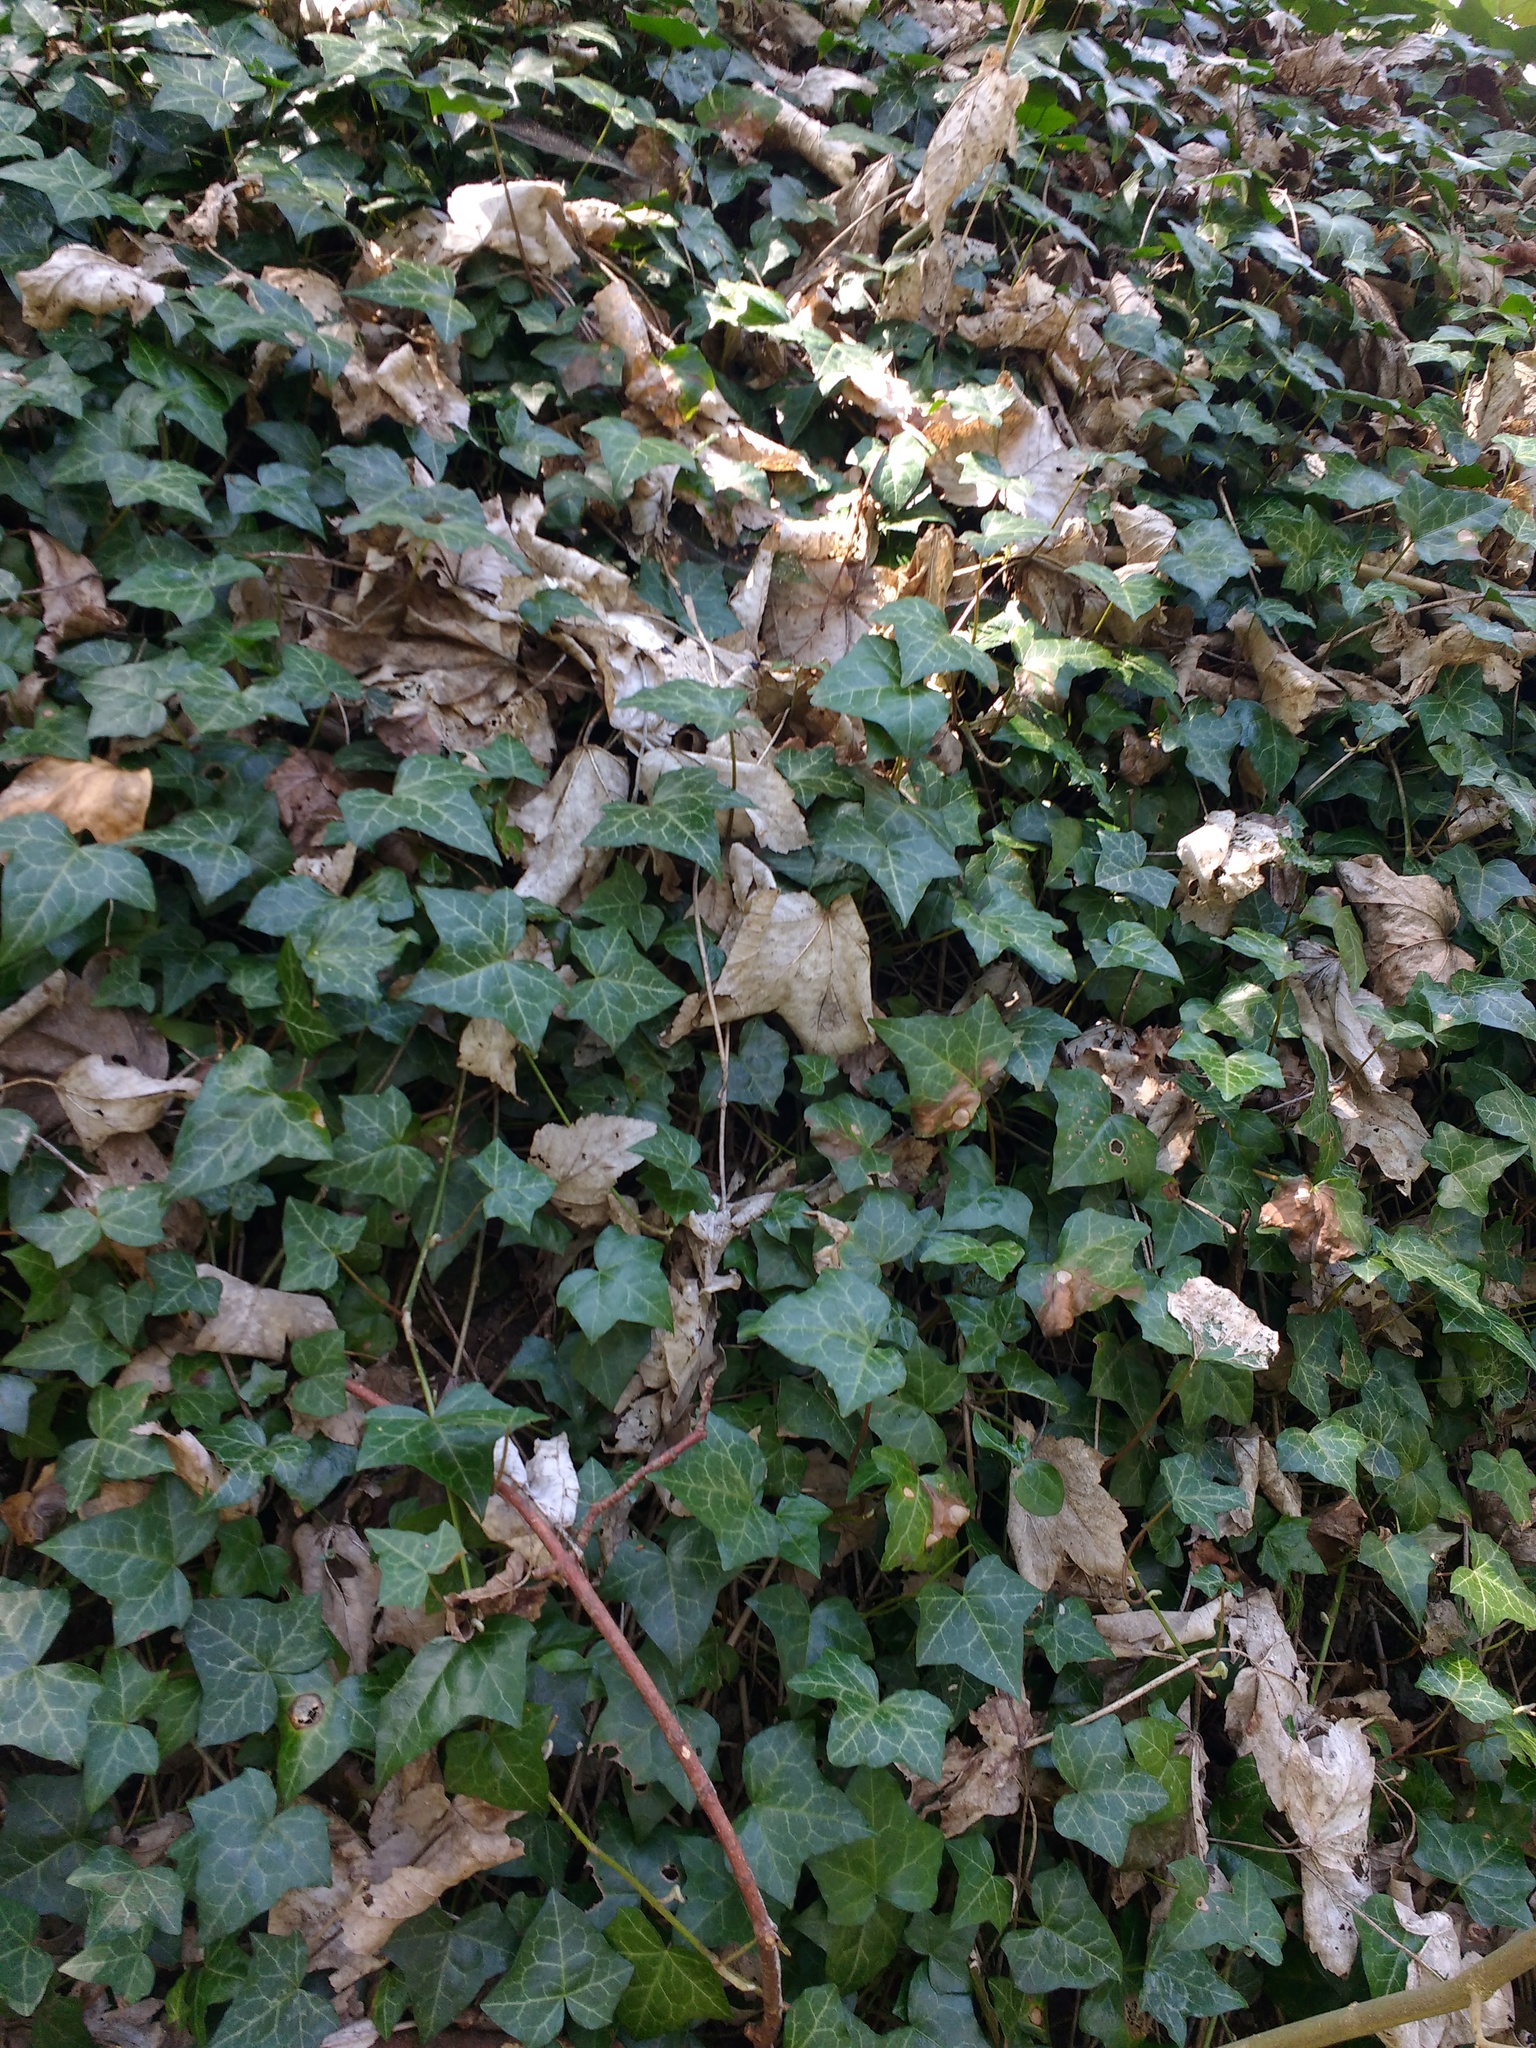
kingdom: Plantae
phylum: Tracheophyta
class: Magnoliopsida
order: Apiales
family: Araliaceae
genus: Hedera
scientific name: Hedera helix
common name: Ivy
